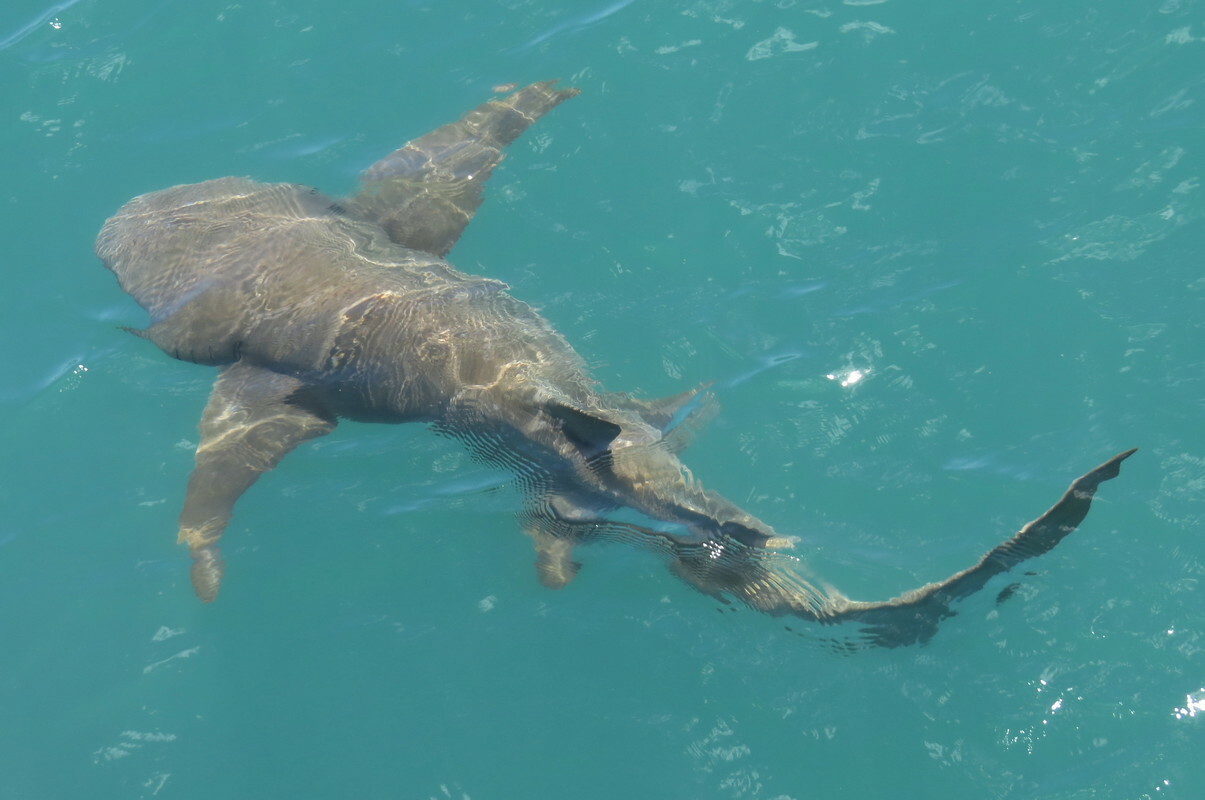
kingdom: Animalia
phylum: Chordata
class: Elasmobranchii
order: Orectolobiformes
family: Ginglymostomatidae
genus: Nebrius
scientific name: Nebrius ferrugineus
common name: Tawny nurse shark
